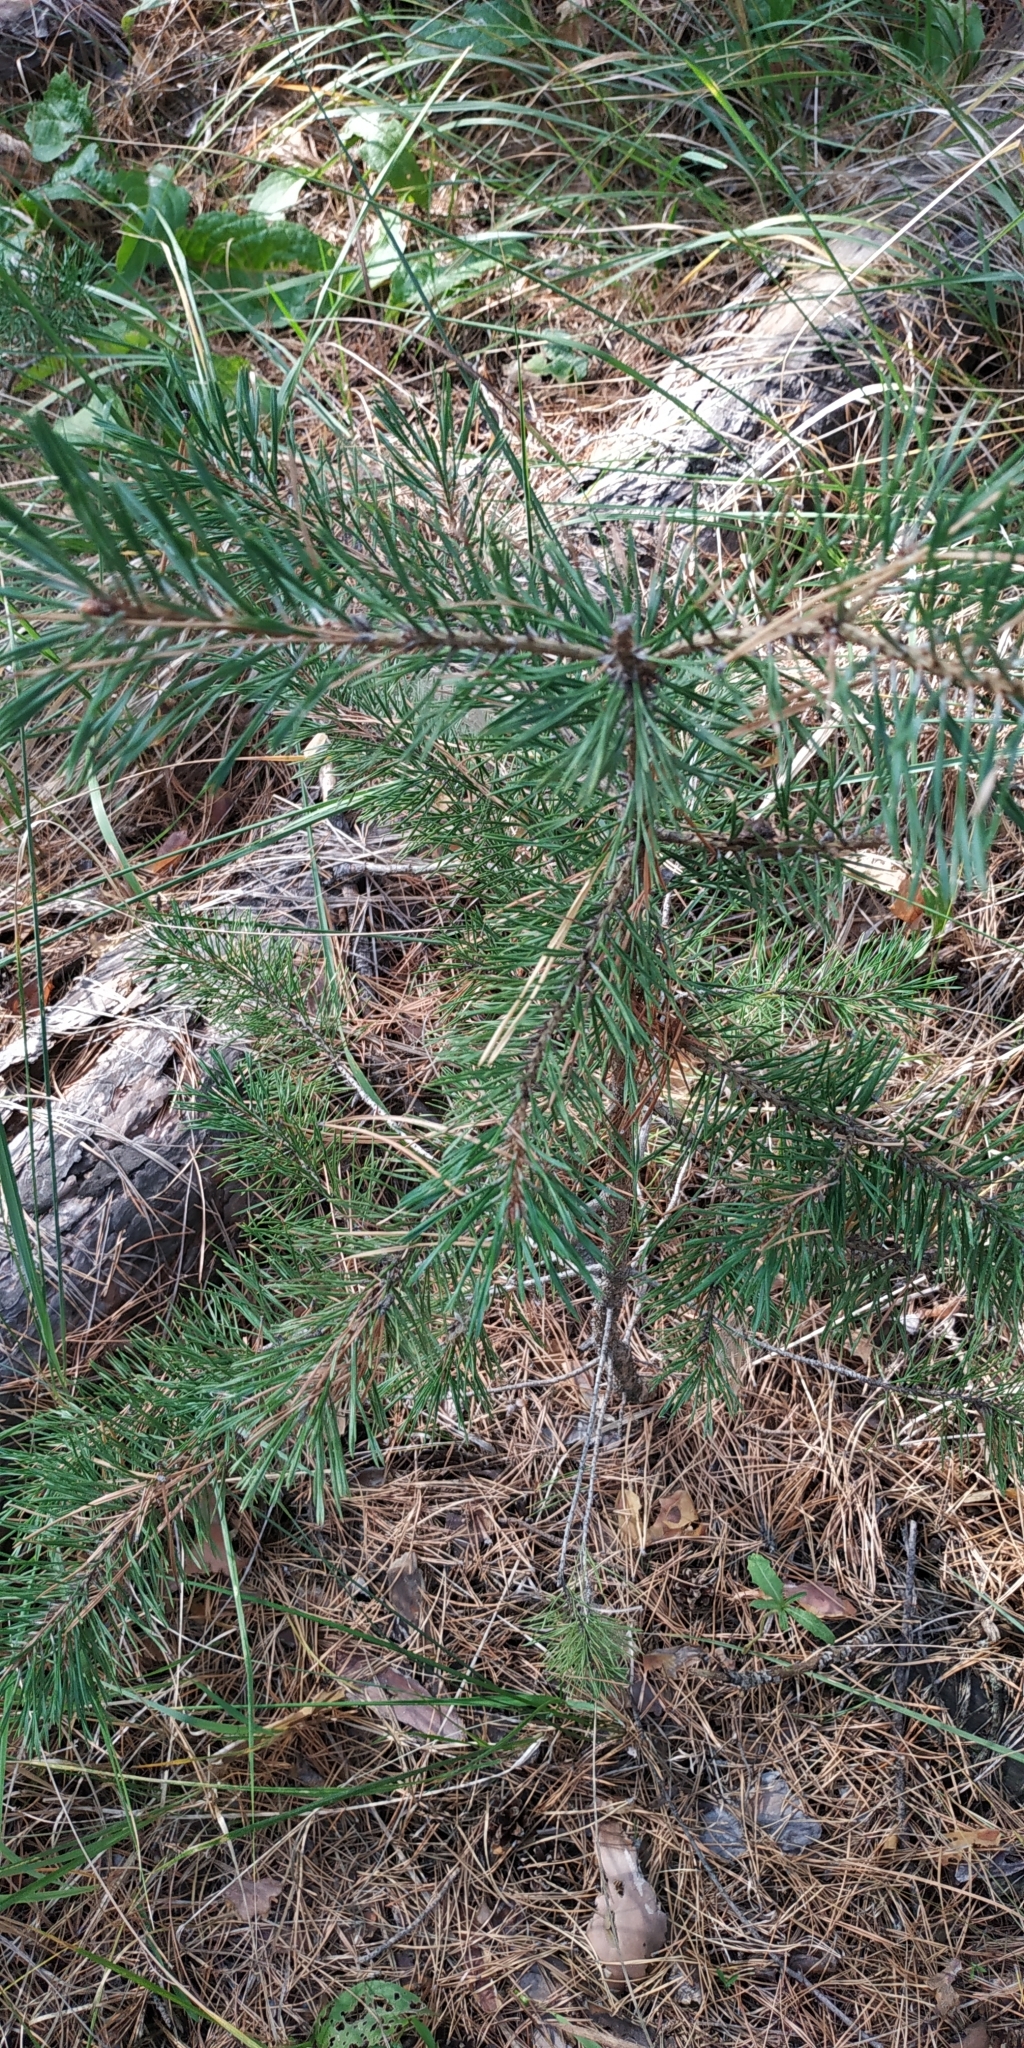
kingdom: Plantae
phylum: Tracheophyta
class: Pinopsida
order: Pinales
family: Pinaceae
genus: Pinus
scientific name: Pinus sylvestris
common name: Scots pine
